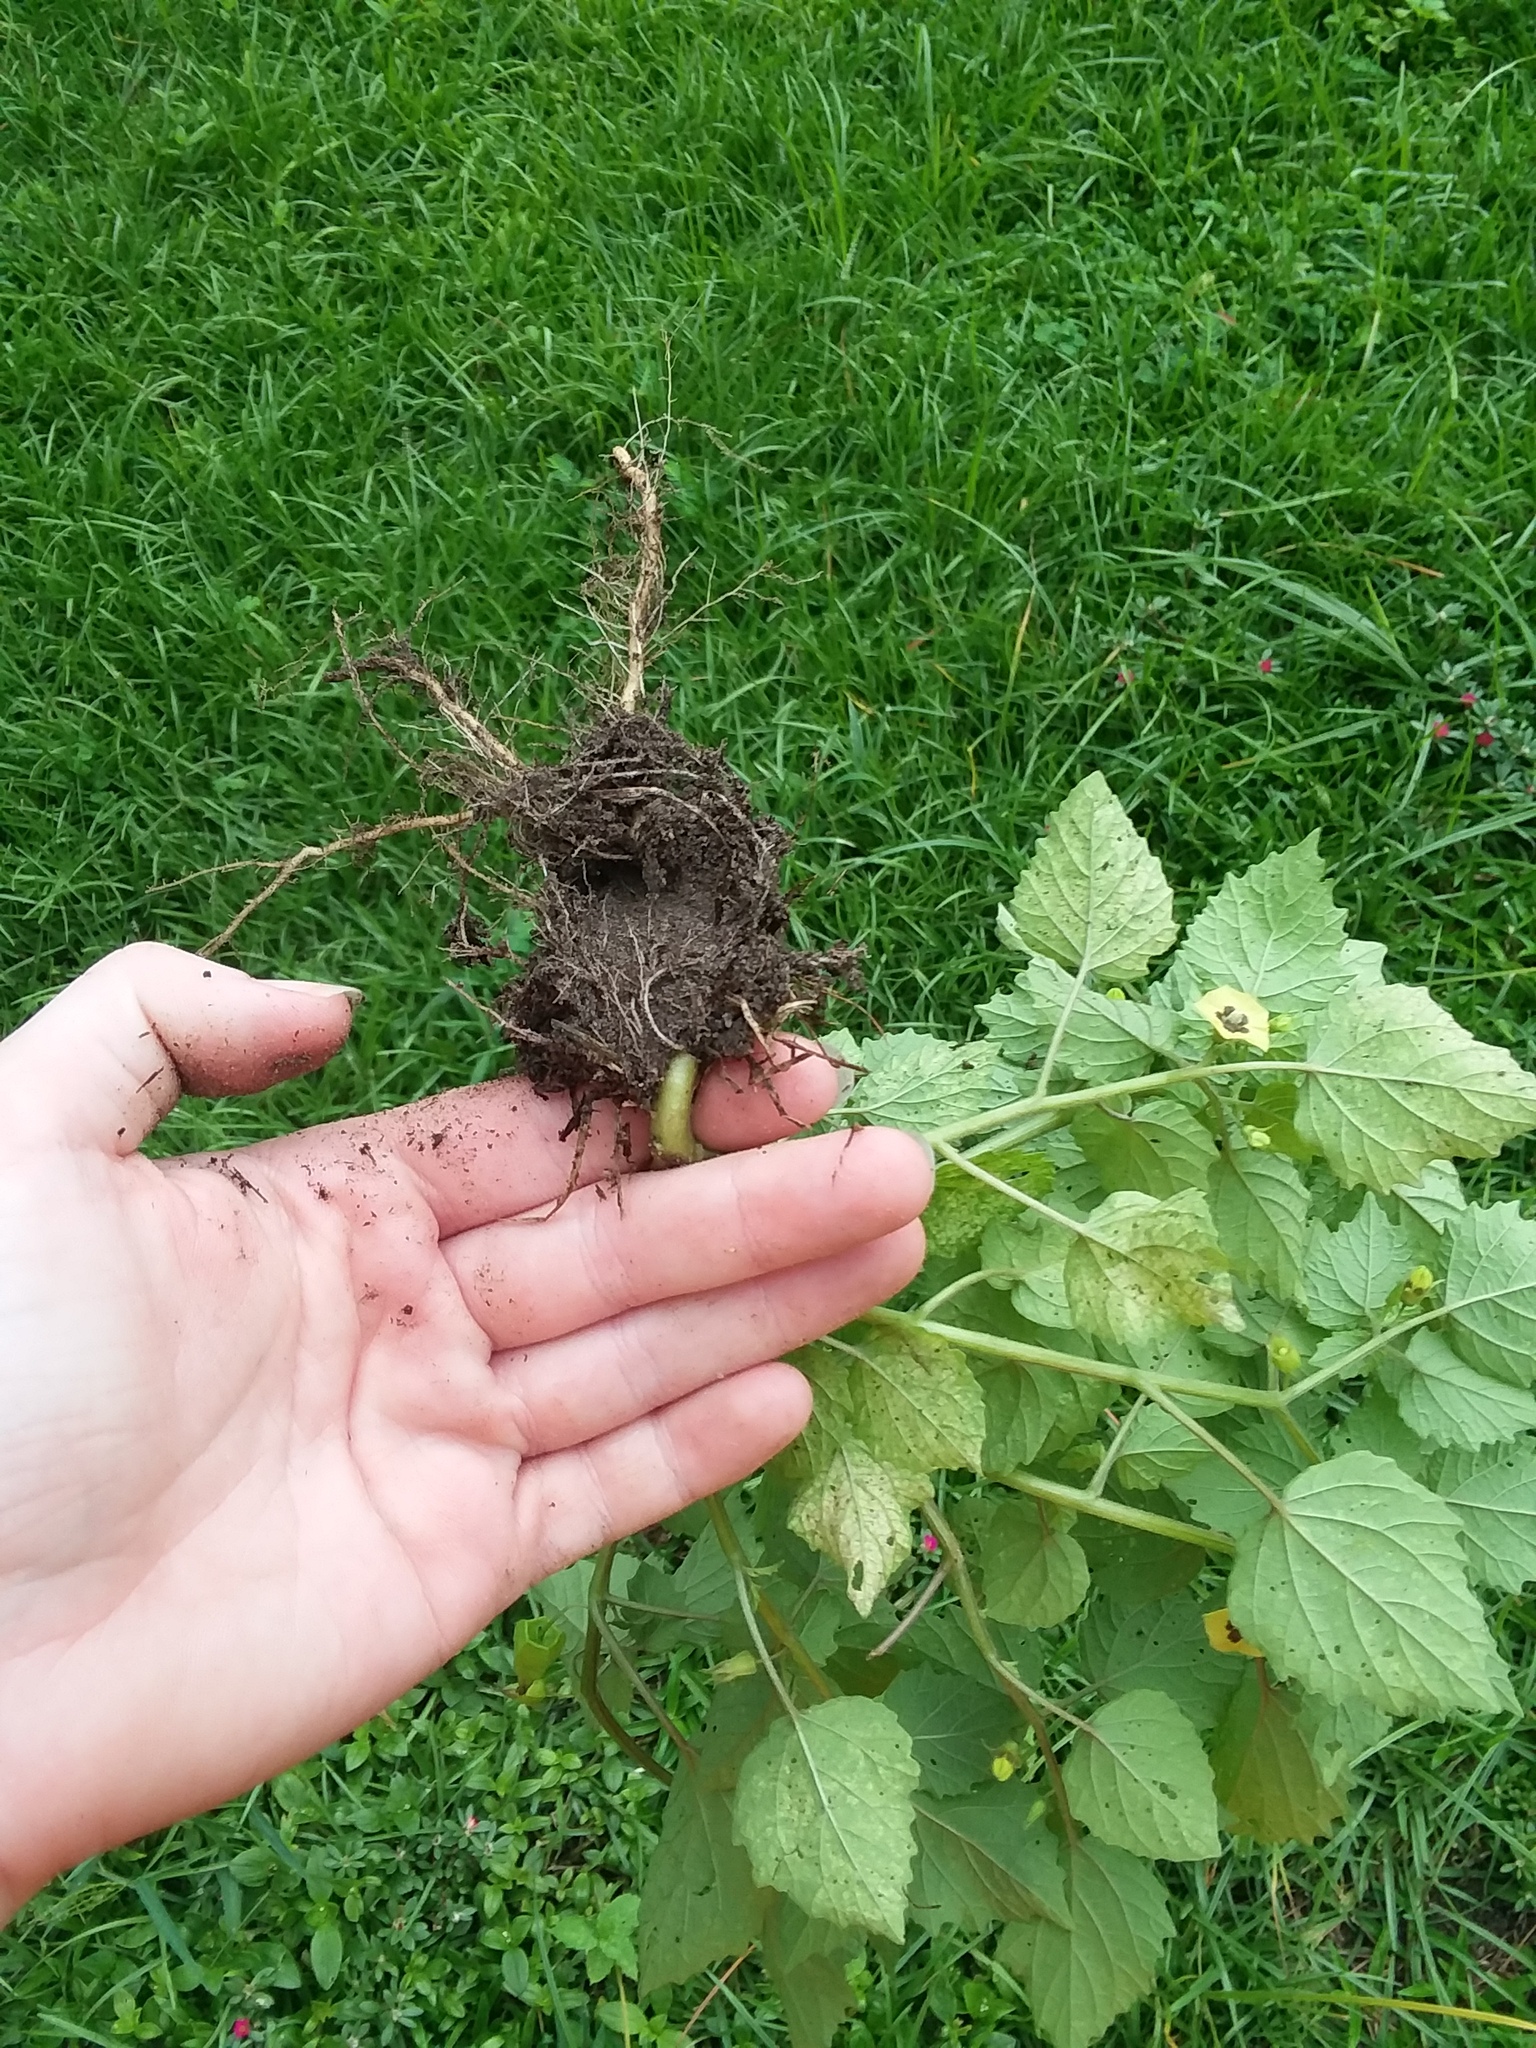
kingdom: Plantae
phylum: Tracheophyta
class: Magnoliopsida
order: Solanales
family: Solanaceae
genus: Physalis
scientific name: Physalis cordata
